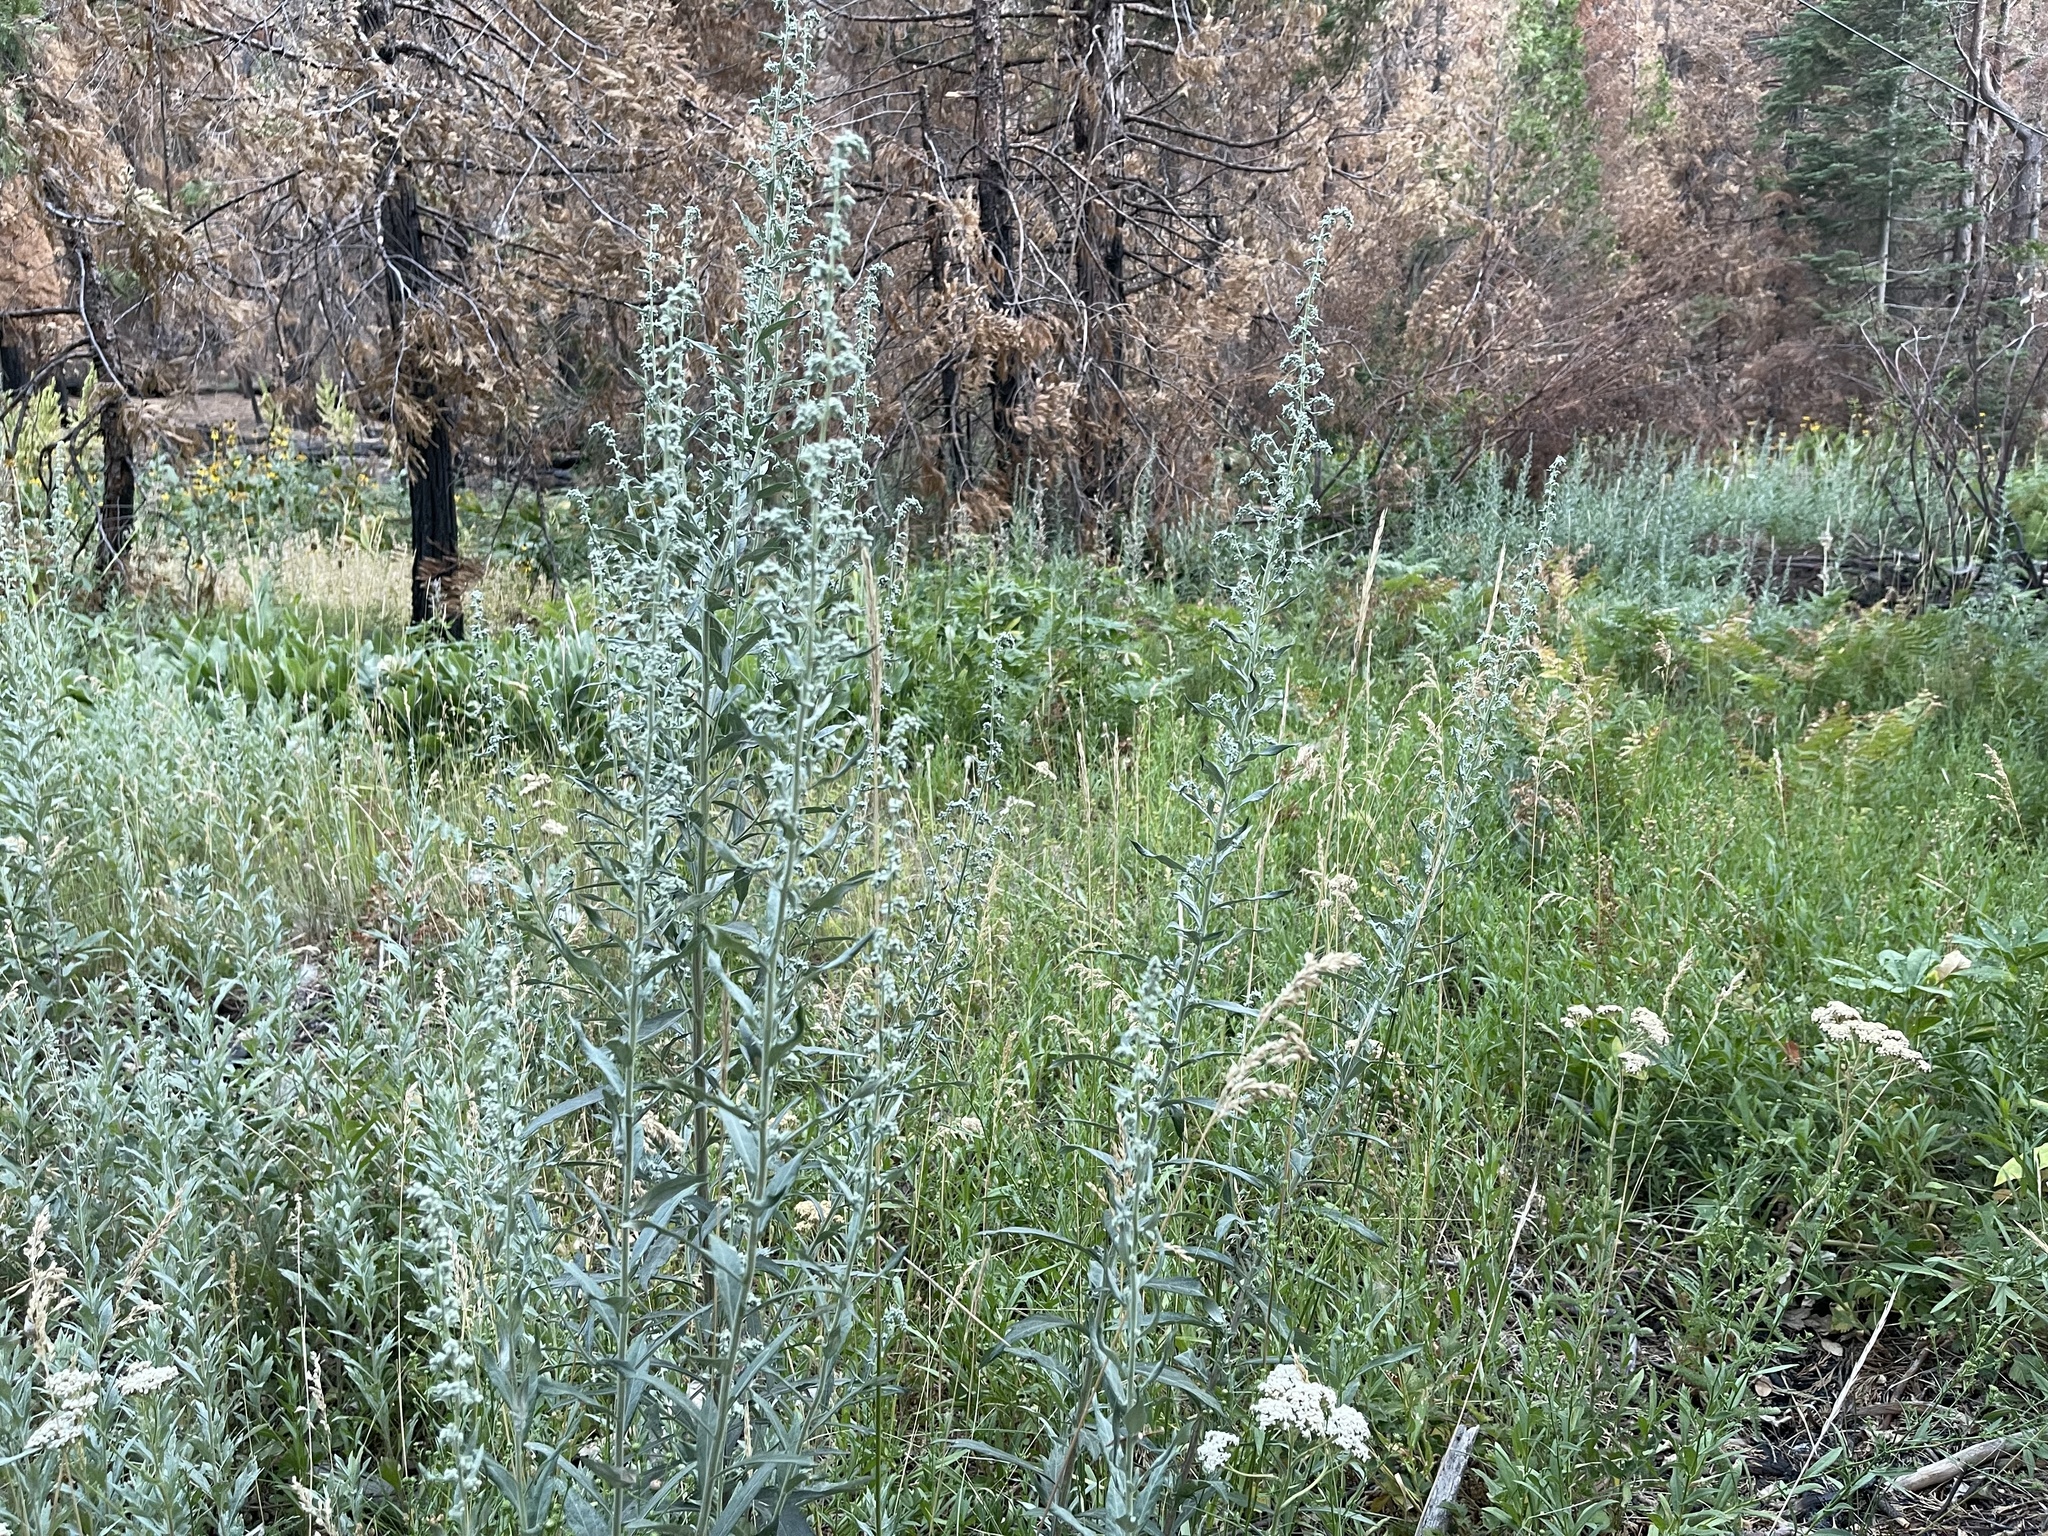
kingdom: Plantae
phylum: Tracheophyta
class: Magnoliopsida
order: Asterales
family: Asteraceae
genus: Artemisia
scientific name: Artemisia douglasiana
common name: Northwest mugwort
